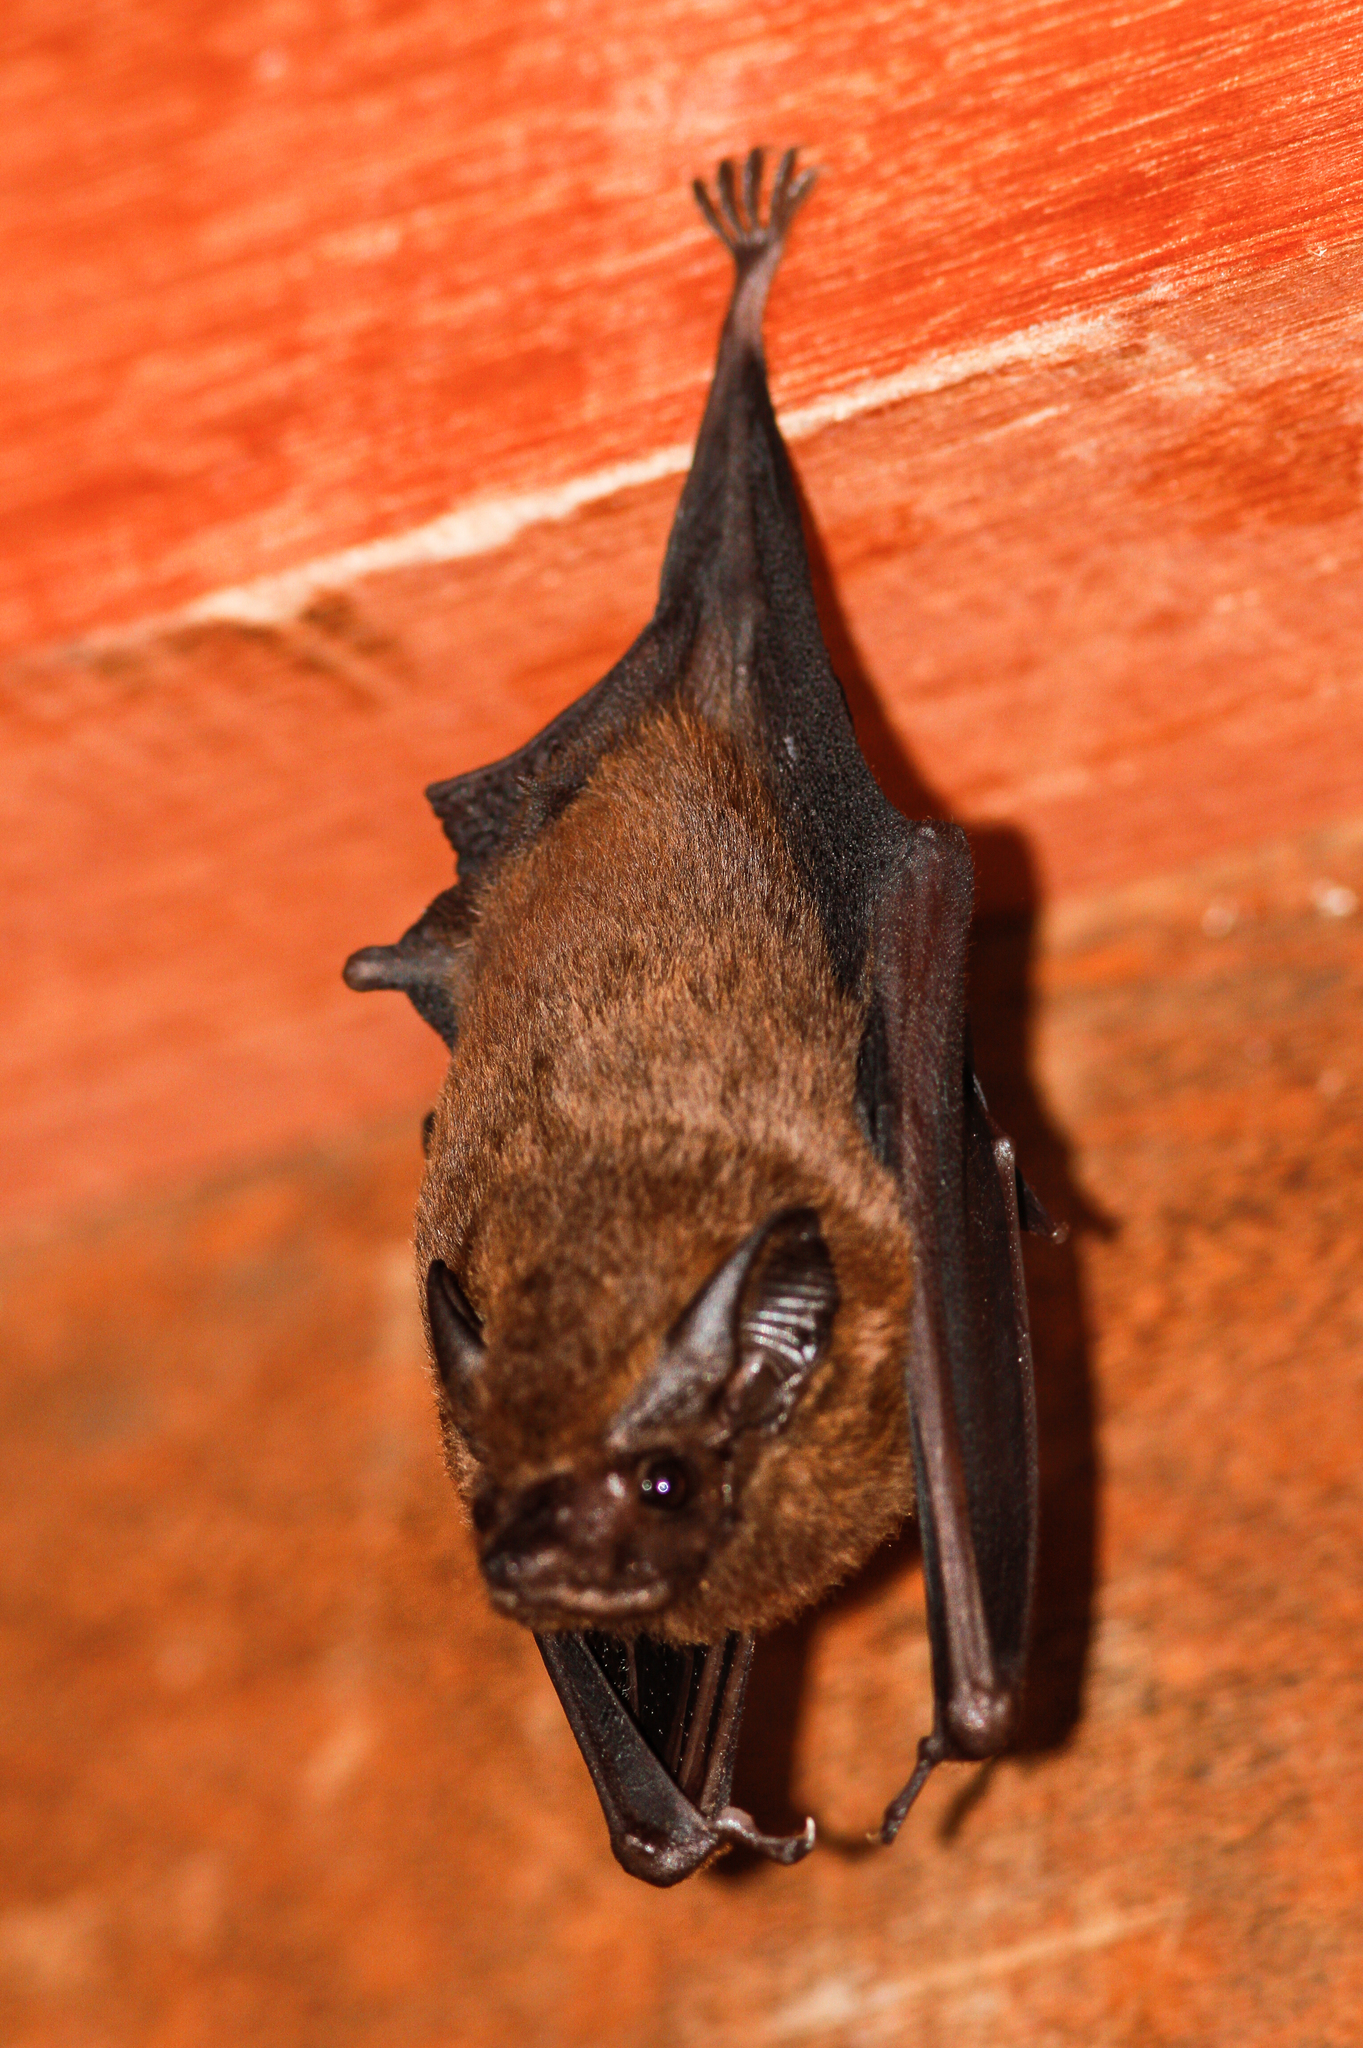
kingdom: Animalia
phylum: Chordata
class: Mammalia
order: Chiroptera
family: Emballonuridae
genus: Cormura
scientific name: Cormura brevirostris
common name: Chestnut sac-winged bat
